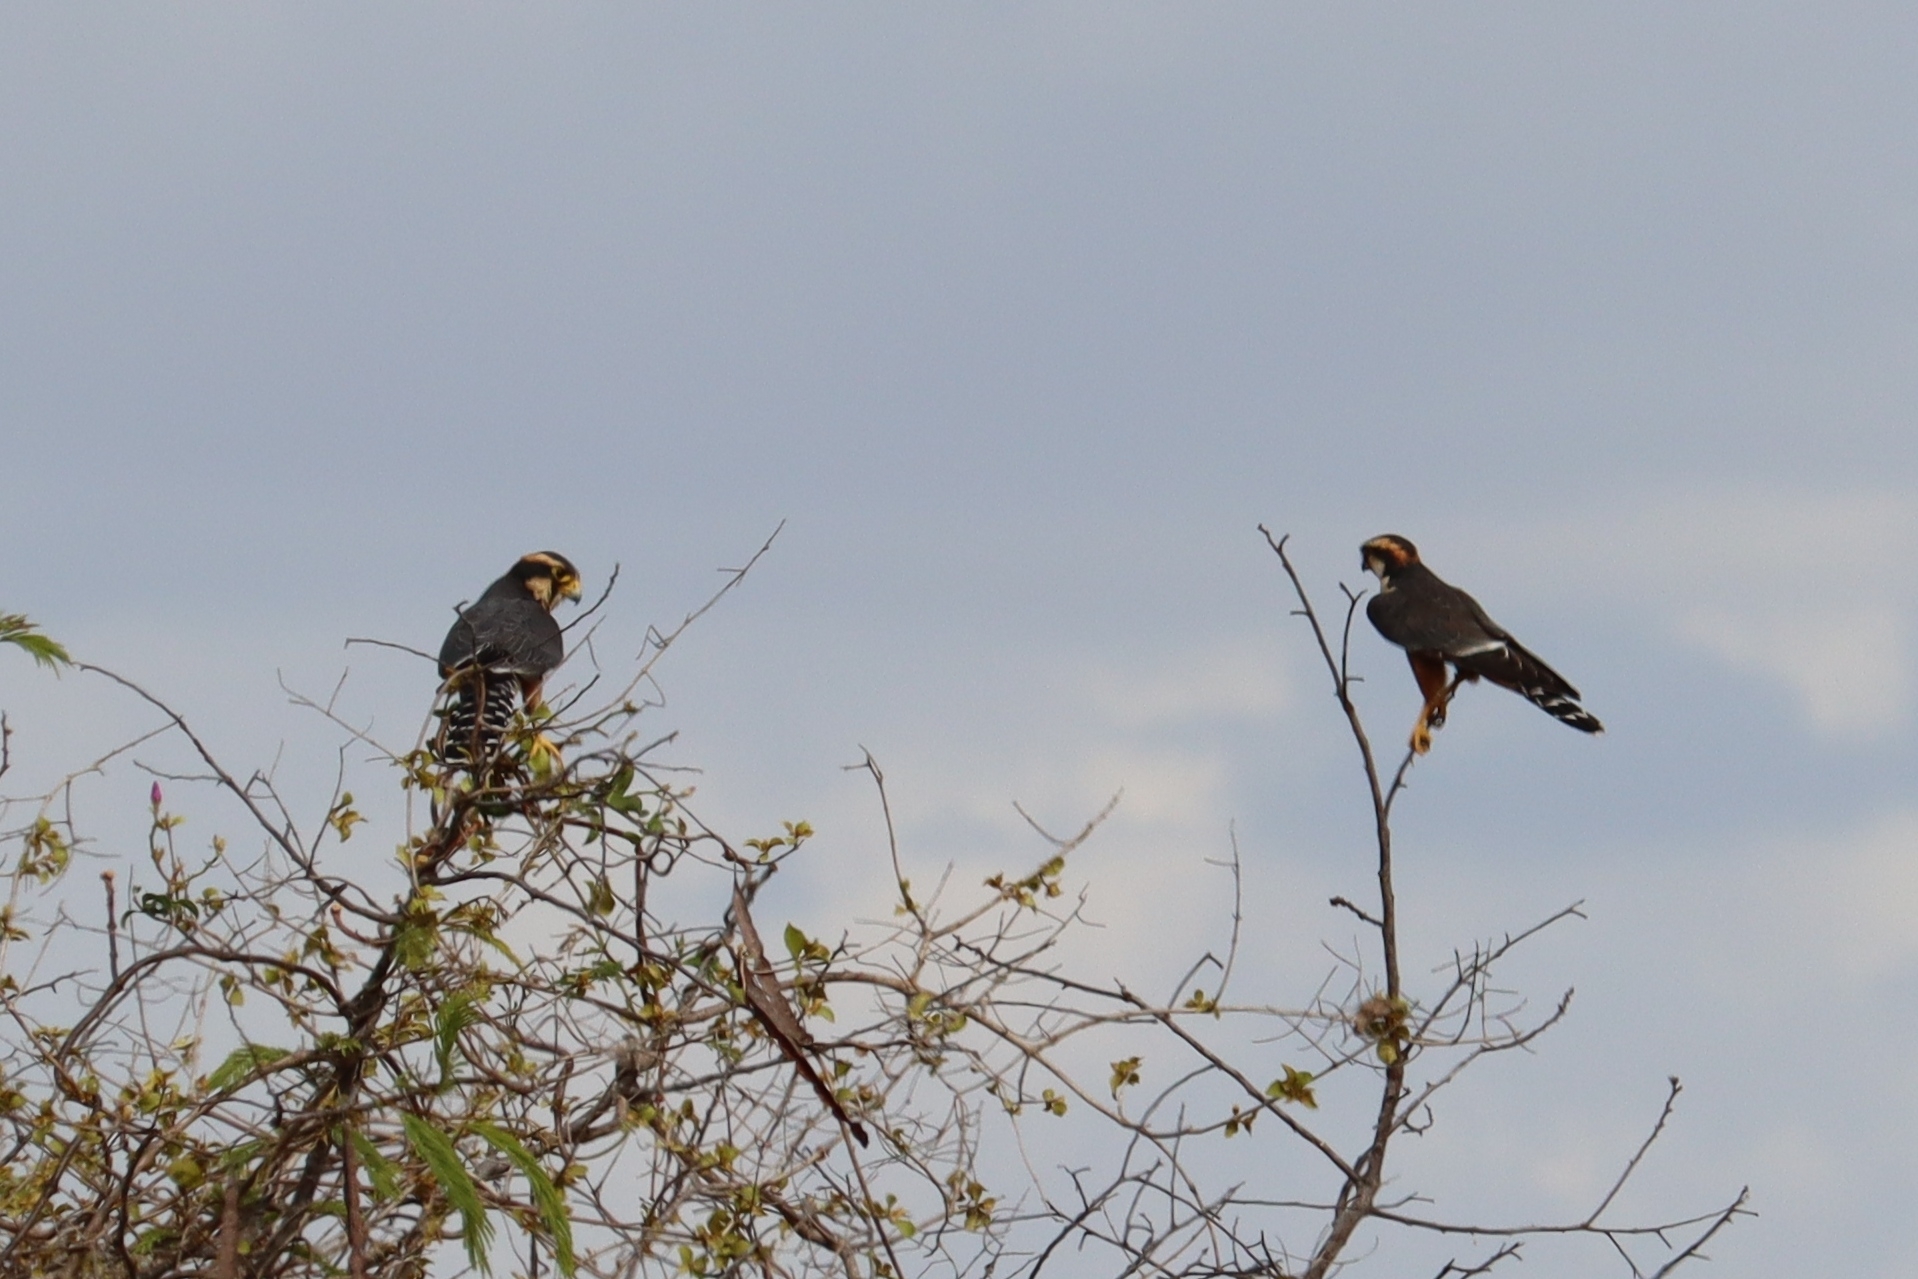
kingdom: Animalia
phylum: Chordata
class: Aves
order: Falconiformes
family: Falconidae
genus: Falco
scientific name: Falco femoralis
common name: Aplomado falcon
